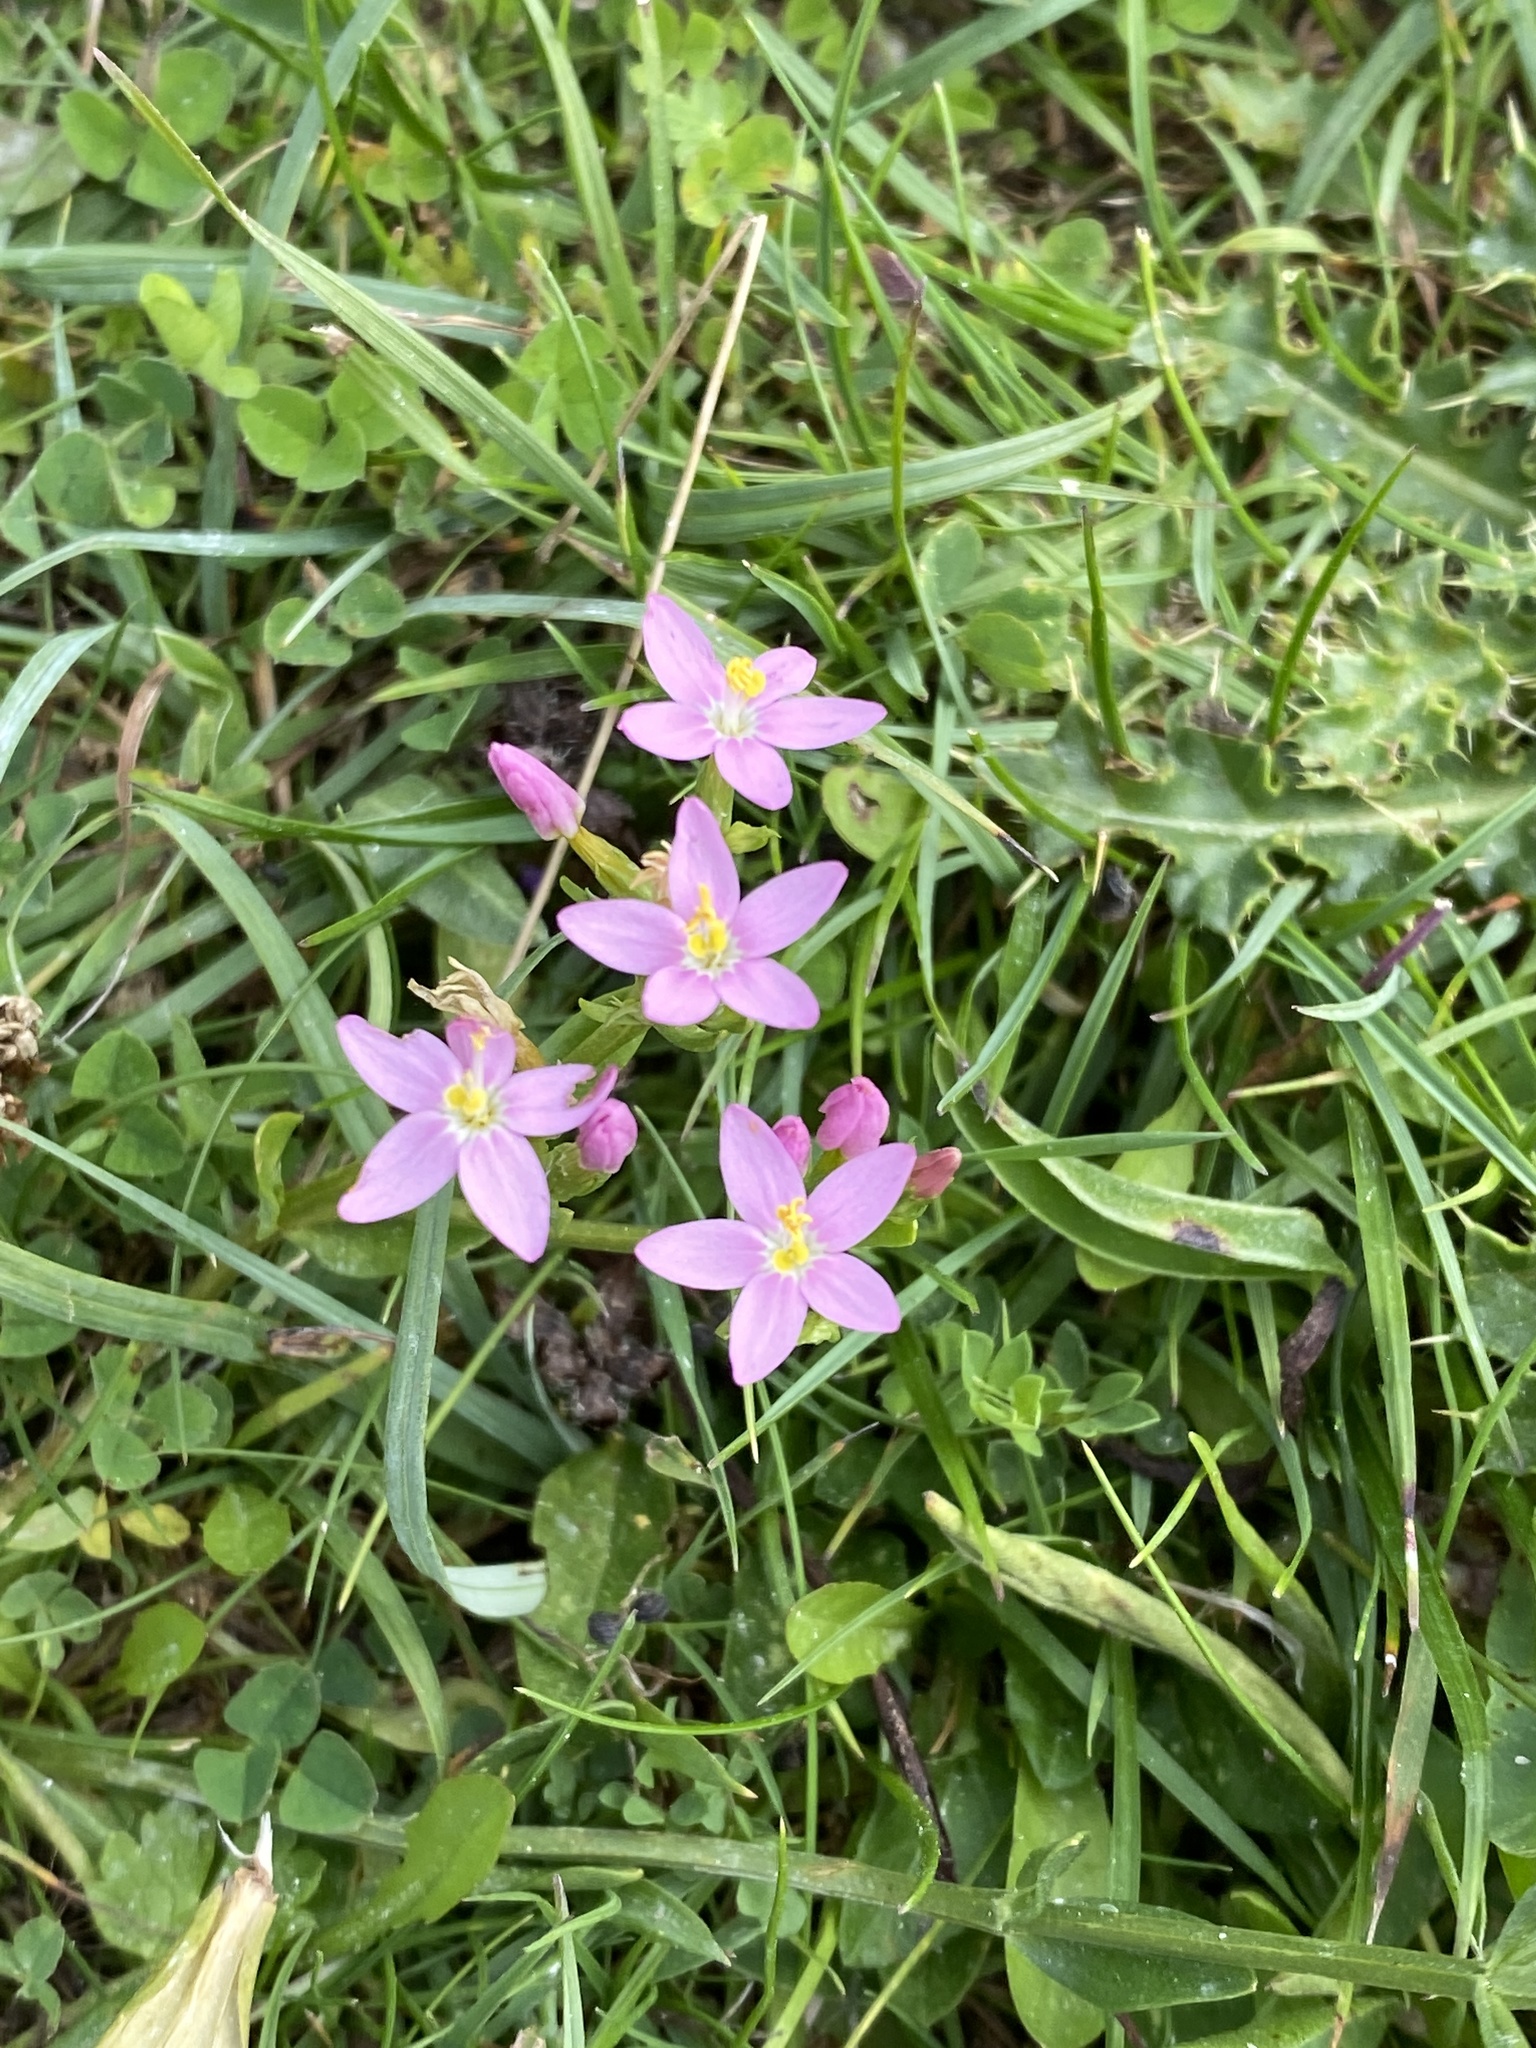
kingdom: Plantae
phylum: Tracheophyta
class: Magnoliopsida
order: Gentianales
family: Gentianaceae
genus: Centaurium
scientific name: Centaurium erythraea
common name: Common centaury
